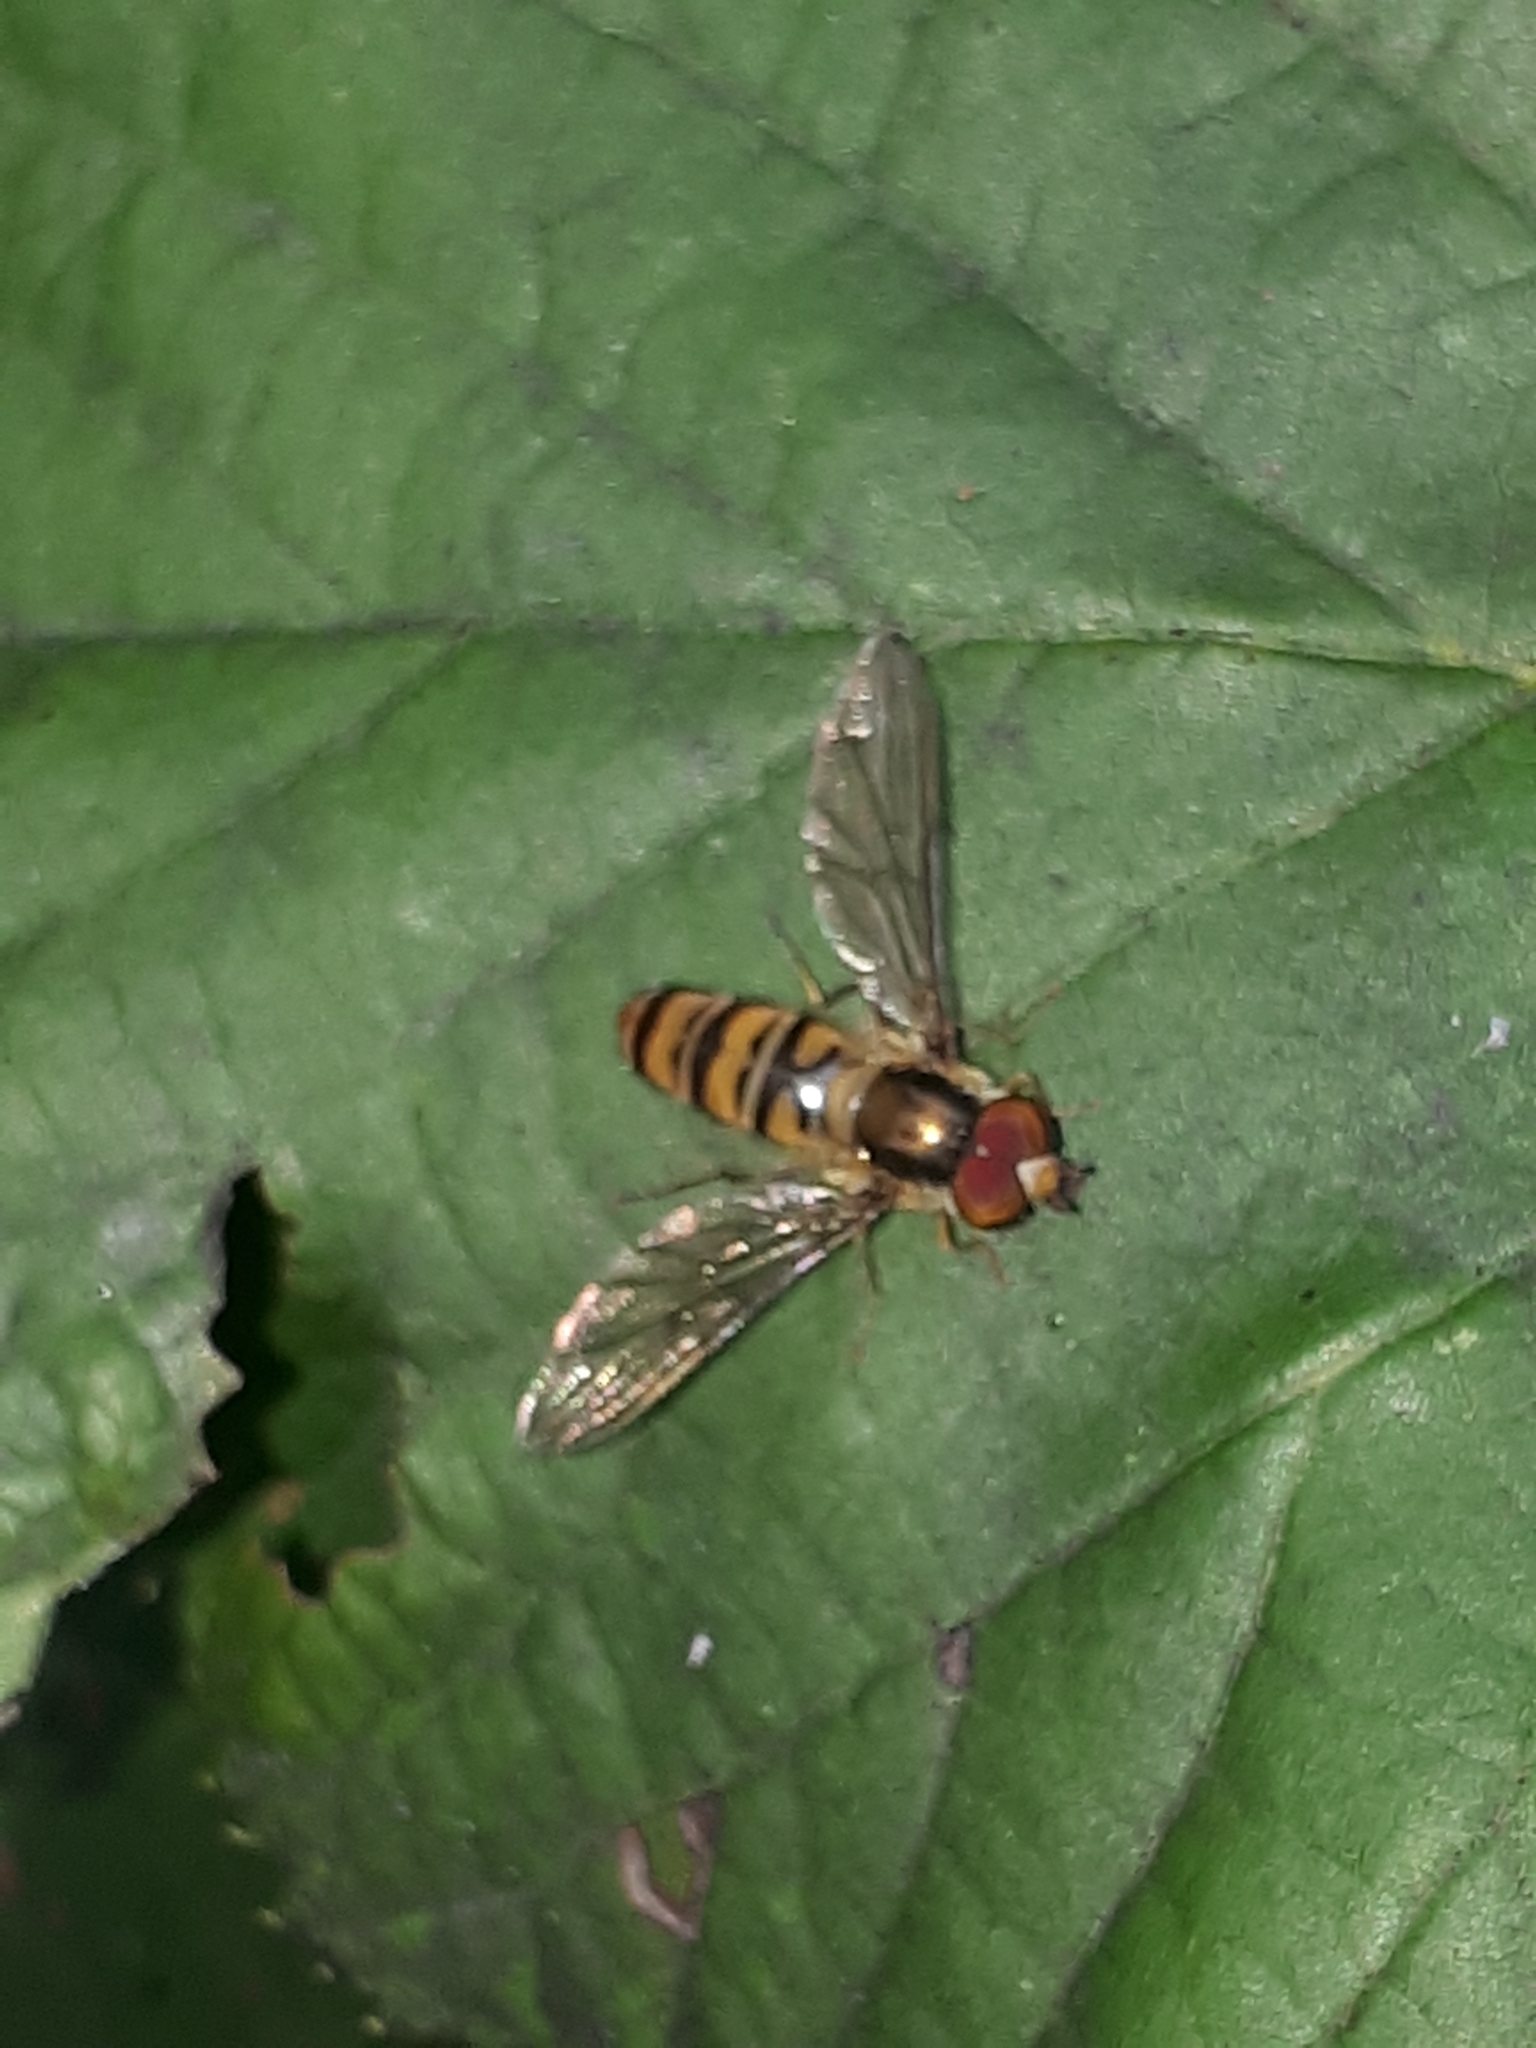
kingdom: Animalia
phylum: Arthropoda
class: Insecta
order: Diptera
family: Syrphidae
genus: Episyrphus
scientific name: Episyrphus balteatus
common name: Marmalade hoverfly
